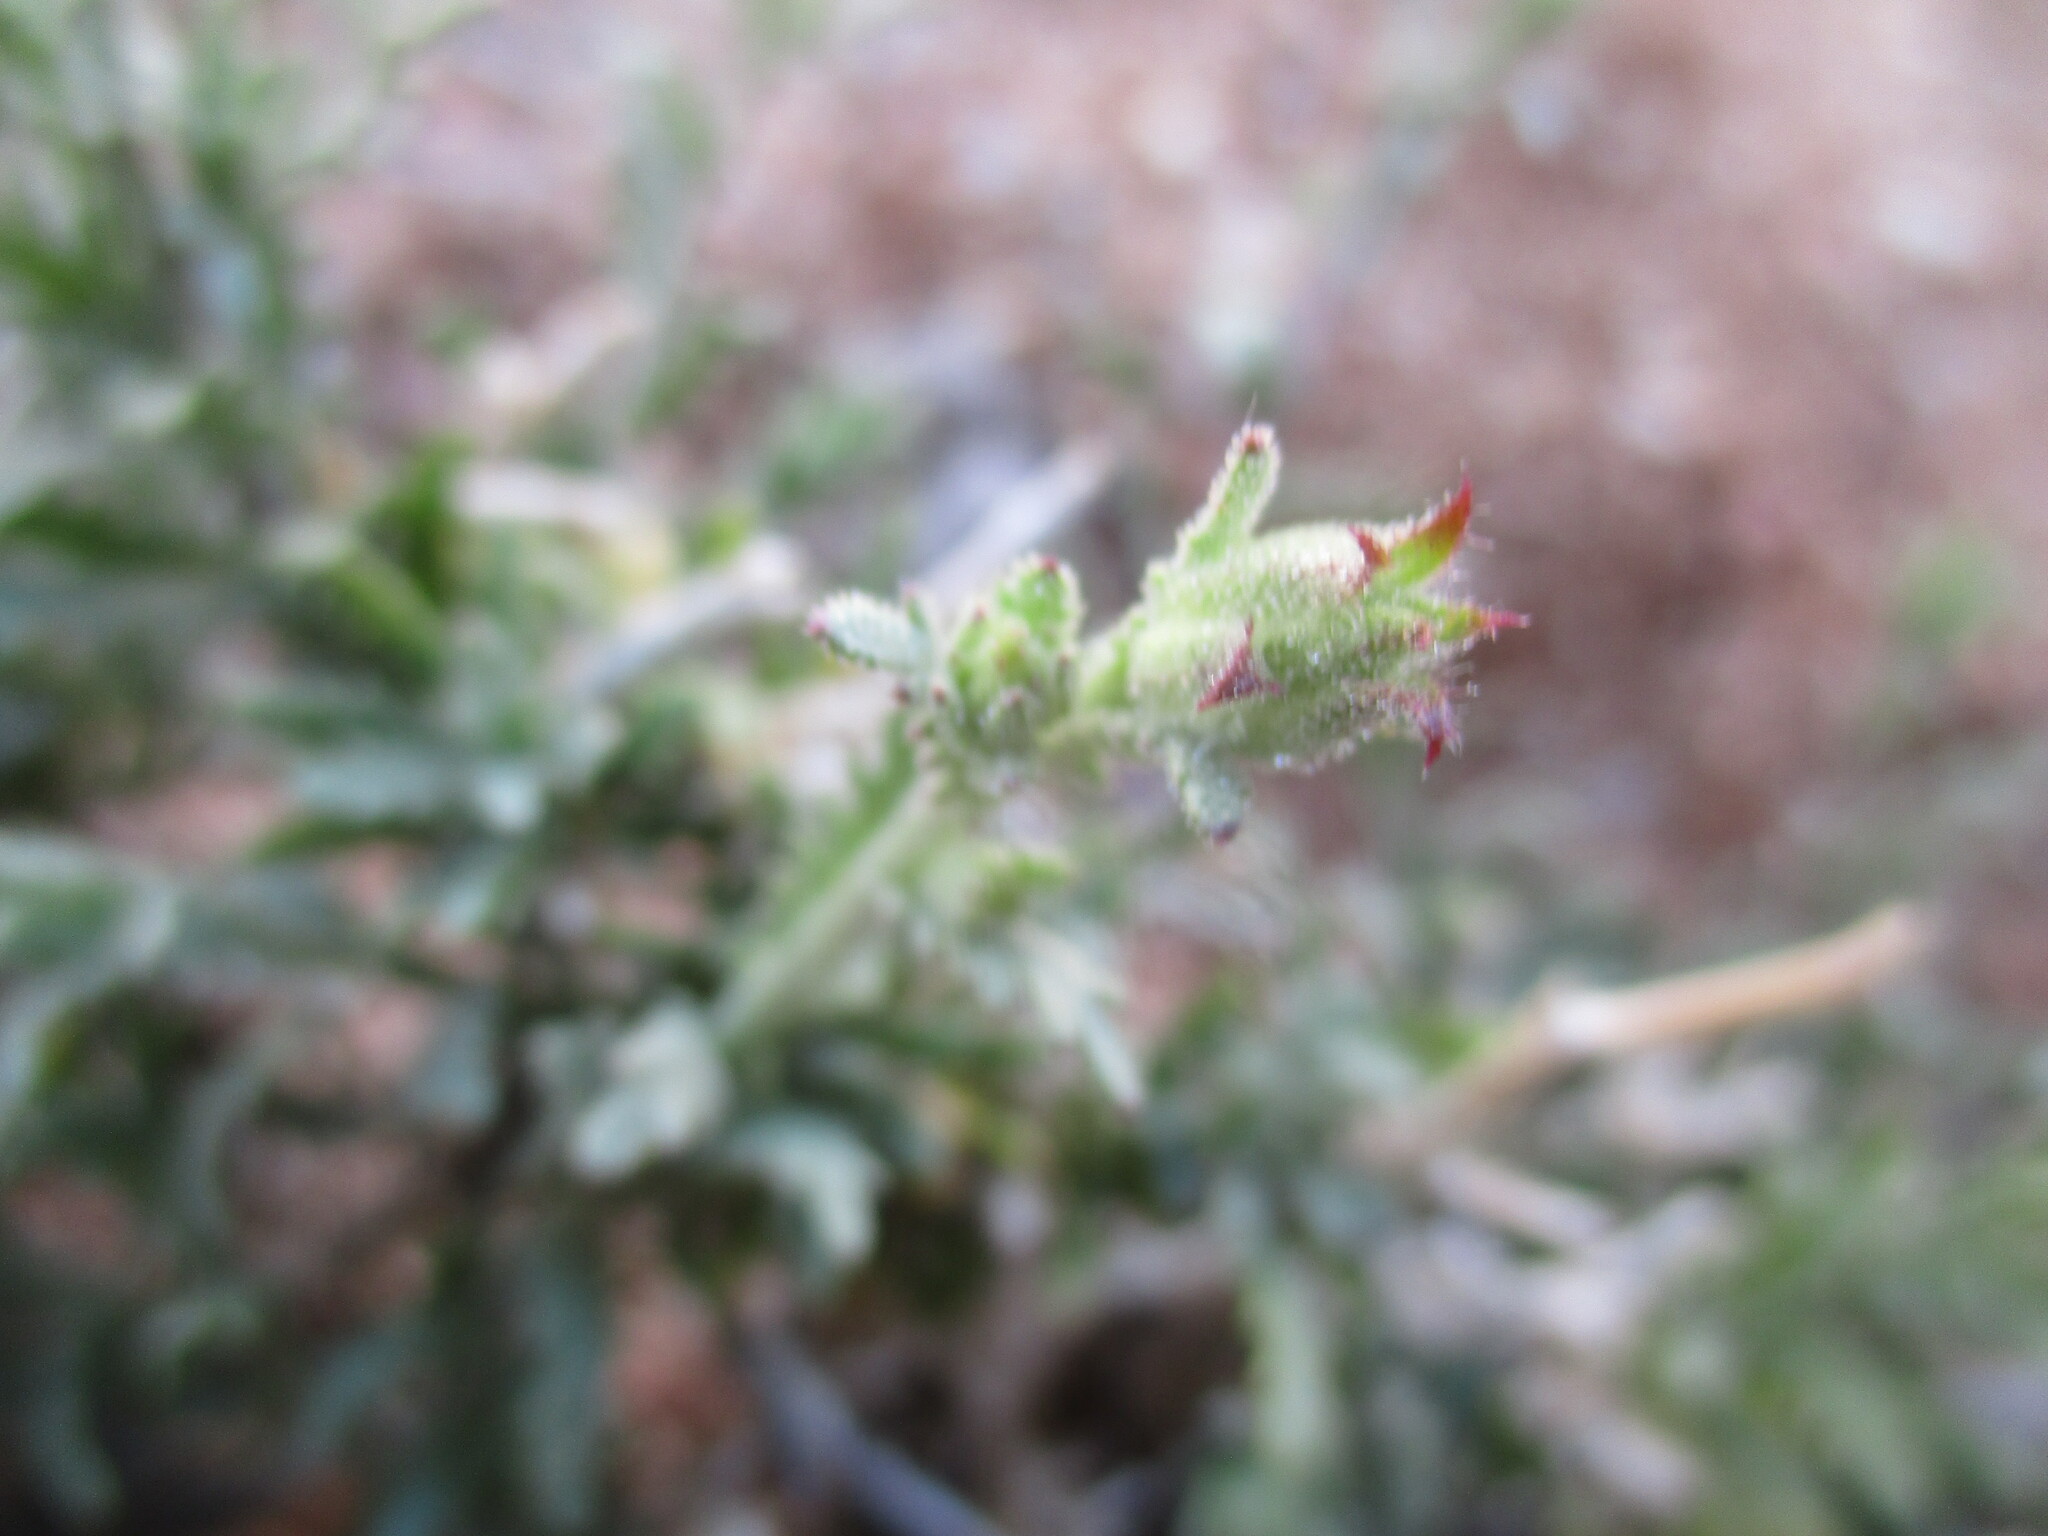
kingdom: Plantae
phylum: Tracheophyta
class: Magnoliopsida
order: Asterales
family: Asteraceae
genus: Osteospermum
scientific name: Osteospermum muricatum
